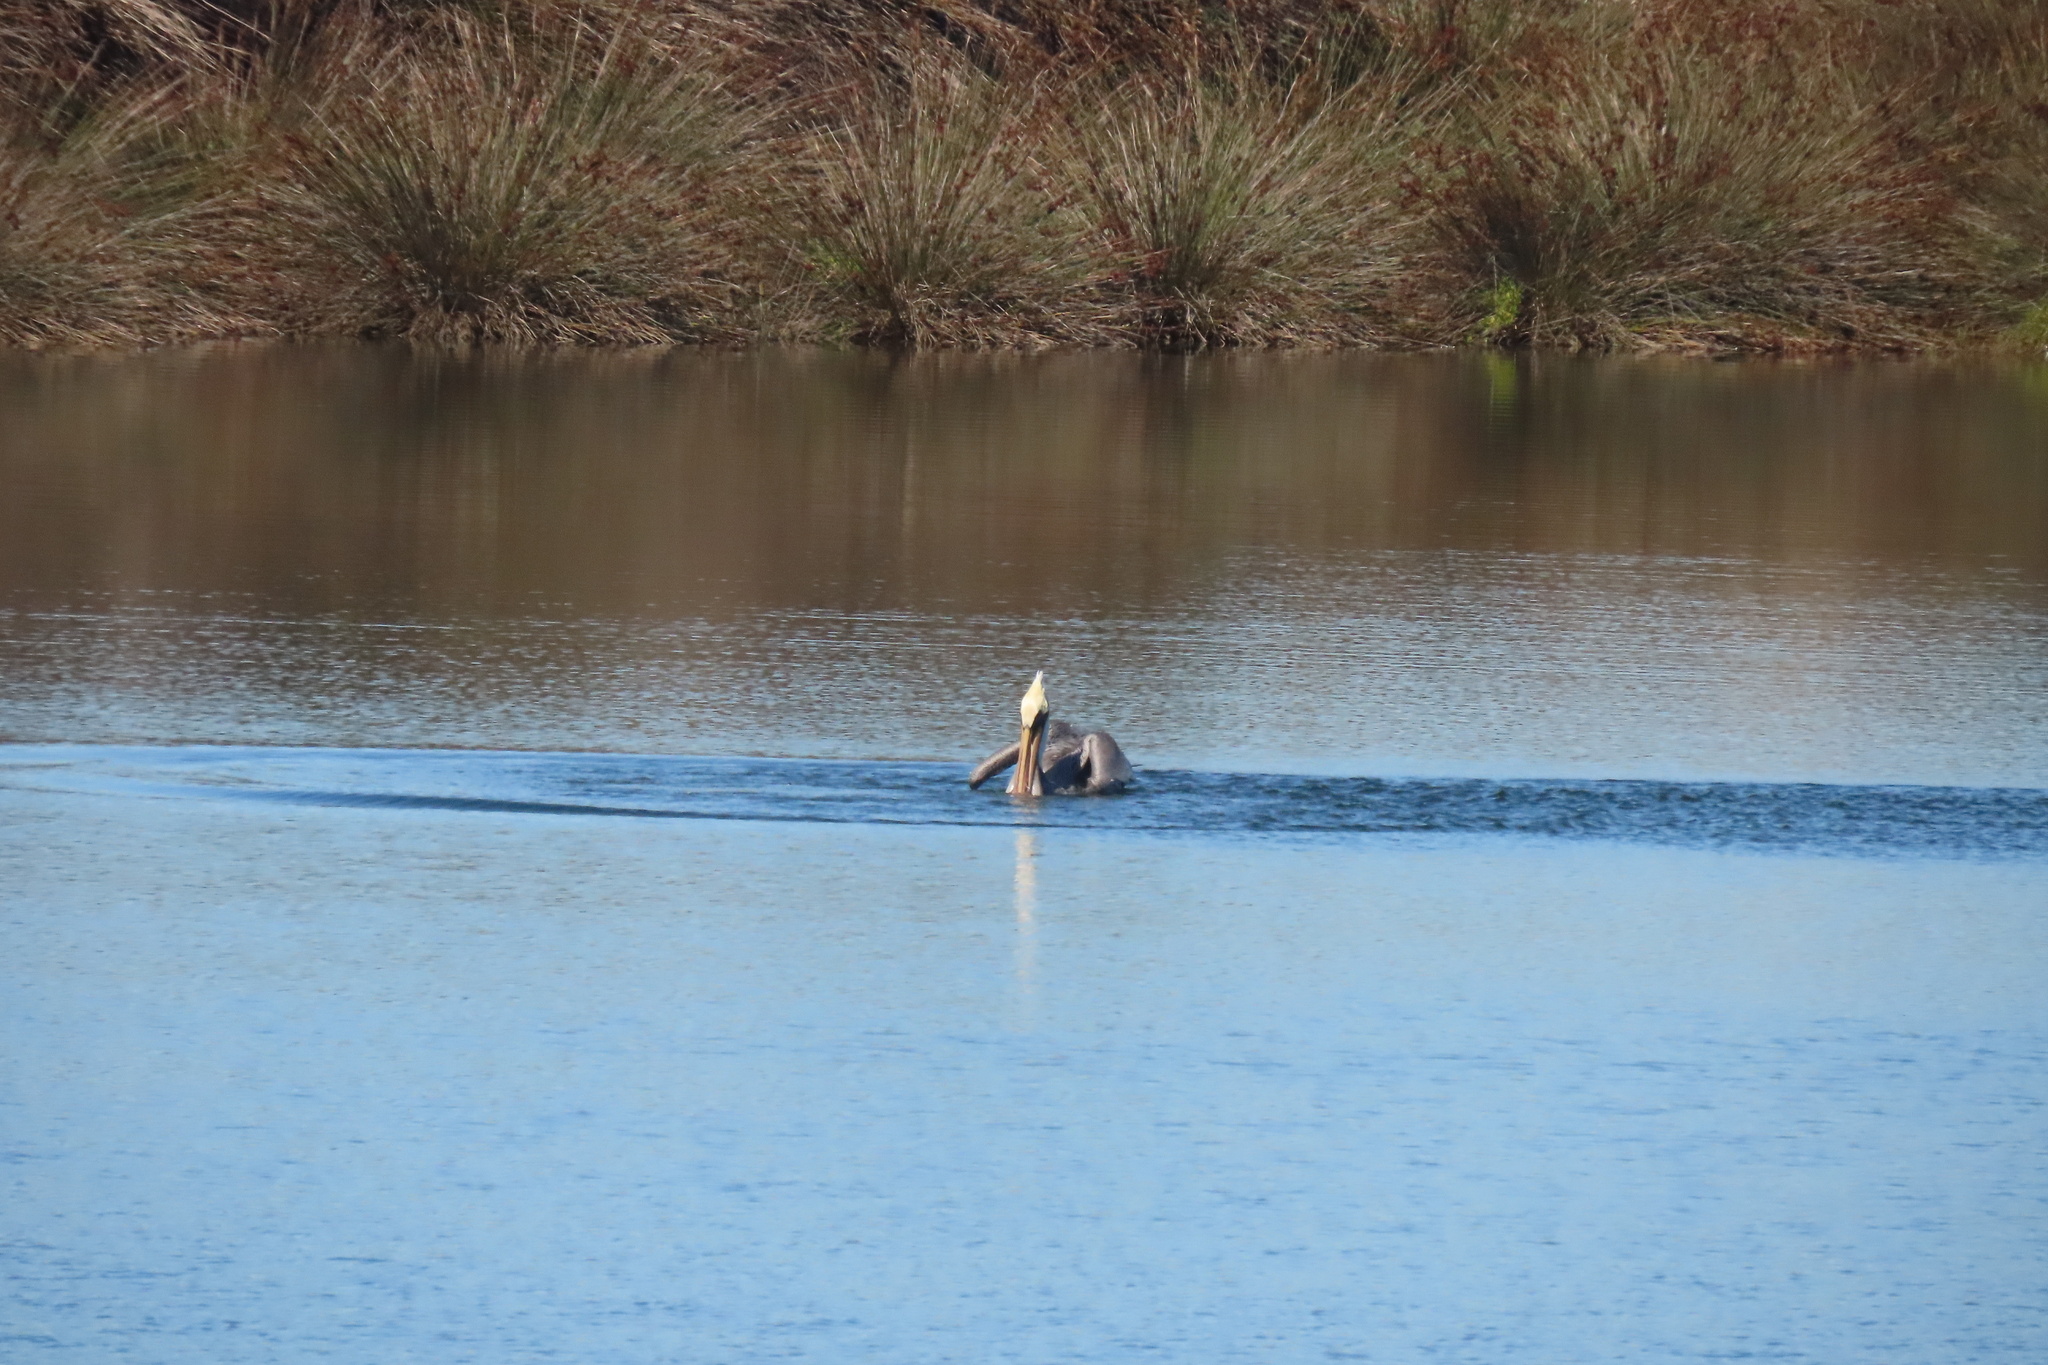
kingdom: Animalia
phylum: Chordata
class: Aves
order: Pelecaniformes
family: Pelecanidae
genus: Pelecanus
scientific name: Pelecanus occidentalis
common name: Brown pelican
